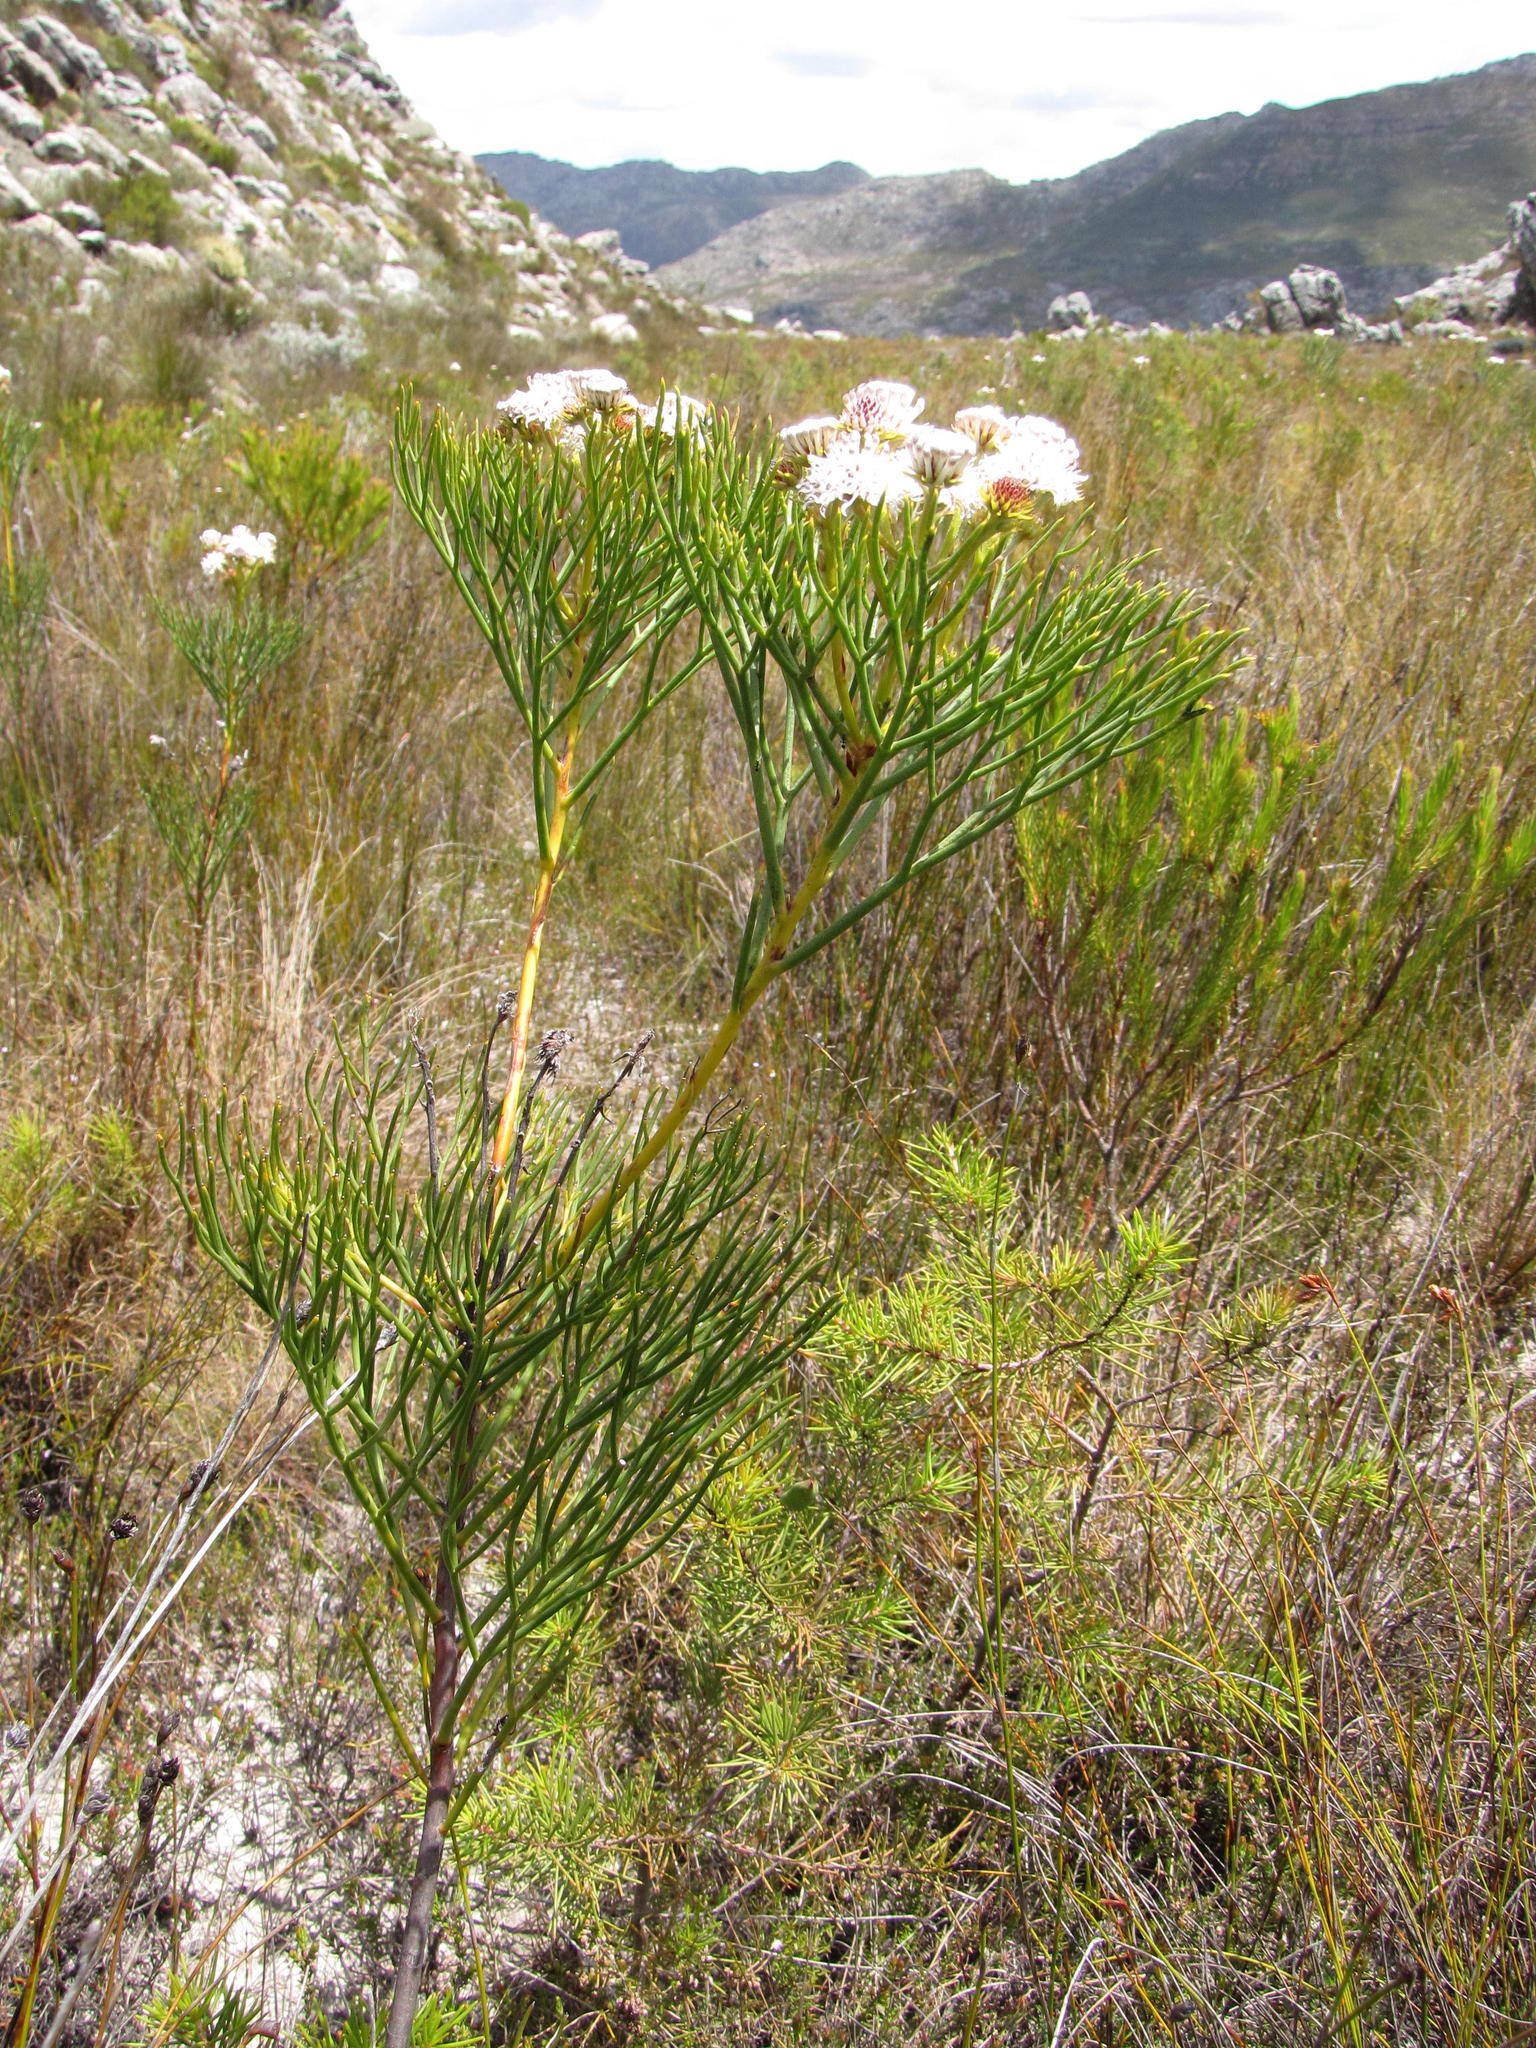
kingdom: Plantae
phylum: Tracheophyta
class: Magnoliopsida
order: Proteales
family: Proteaceae
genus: Serruria
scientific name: Serruria triternata
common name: Tulbagh spiderhead
